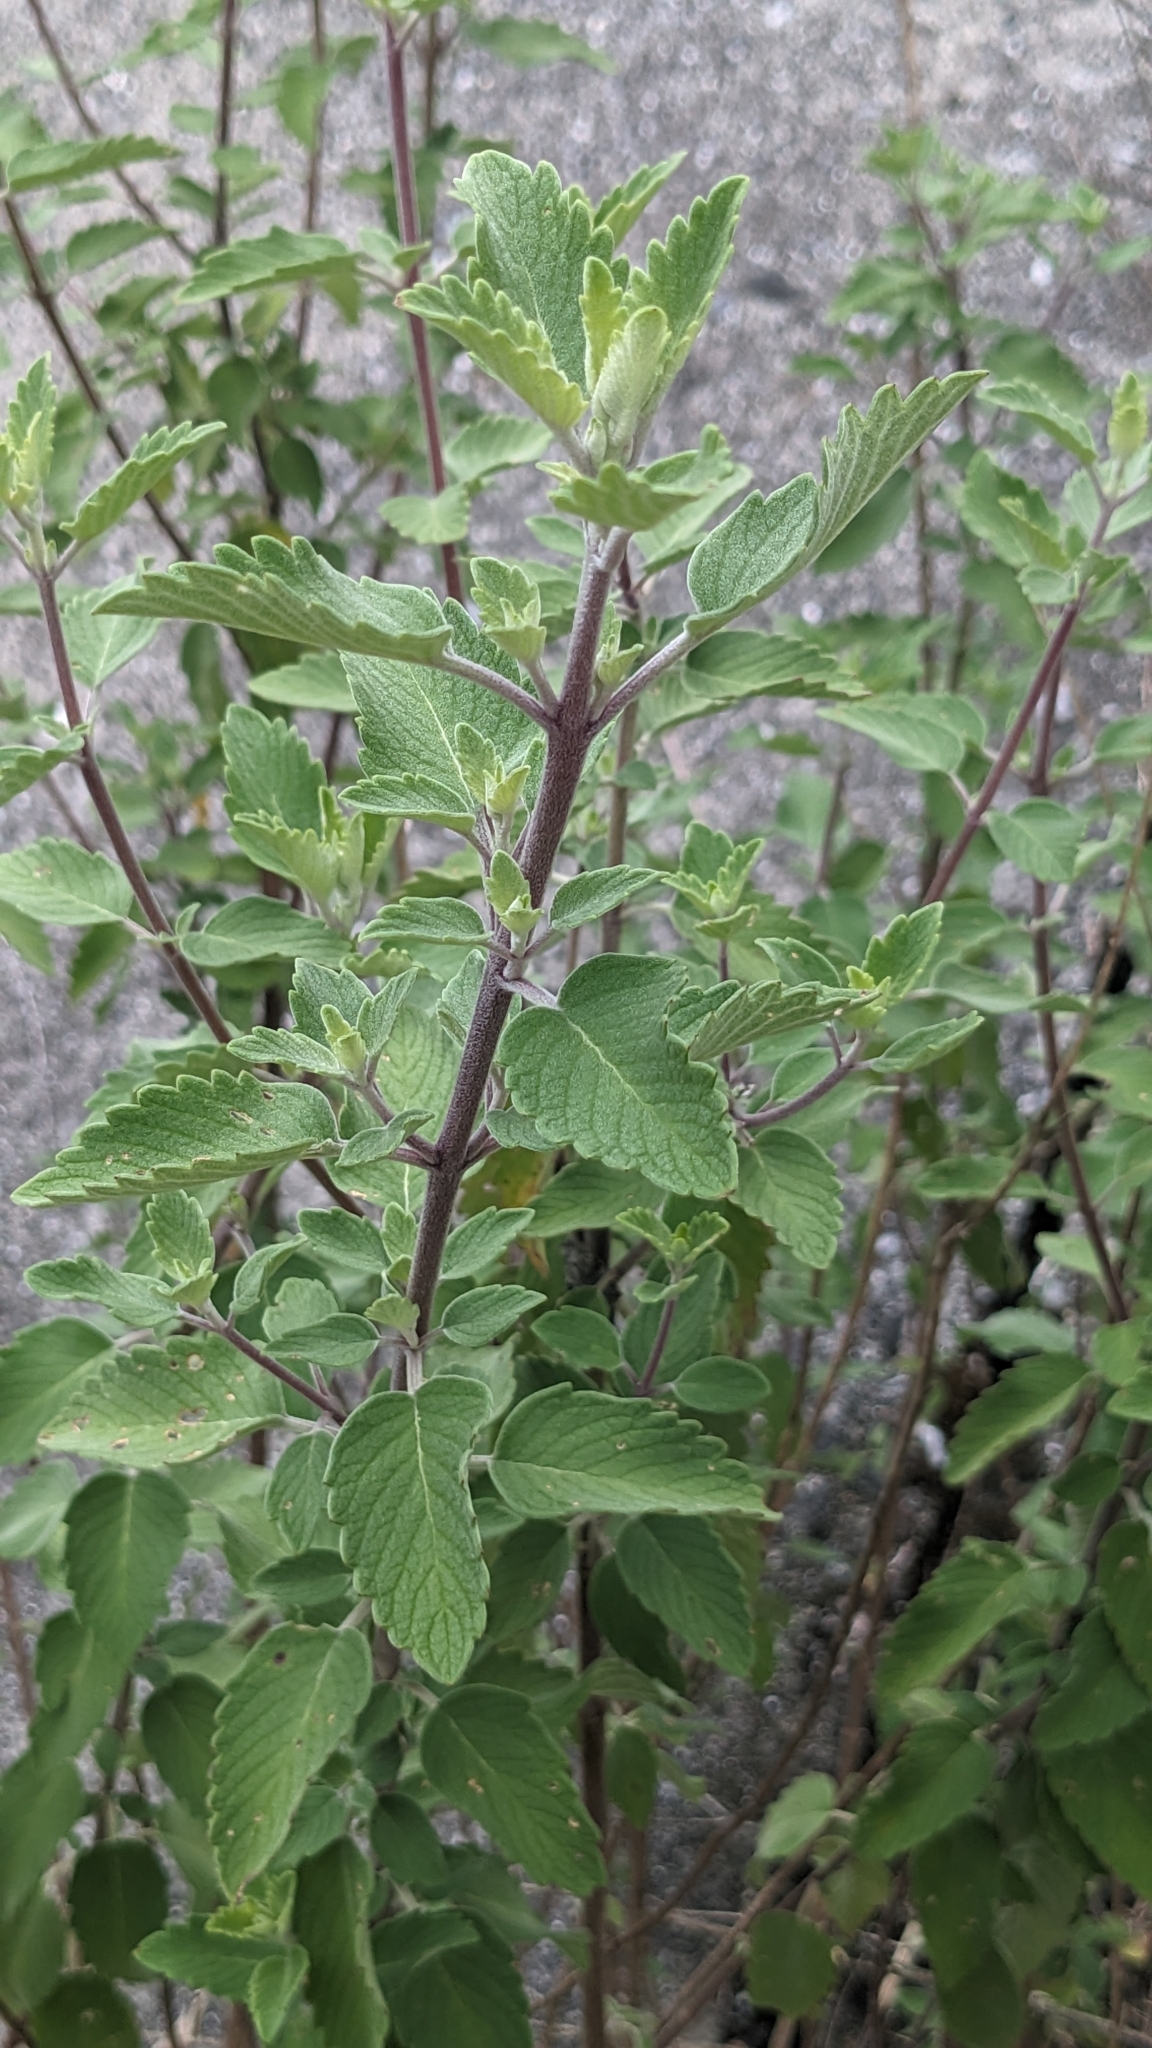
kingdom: Plantae
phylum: Tracheophyta
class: Magnoliopsida
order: Lamiales
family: Lamiaceae
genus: Caryopteris
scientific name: Caryopteris incana
